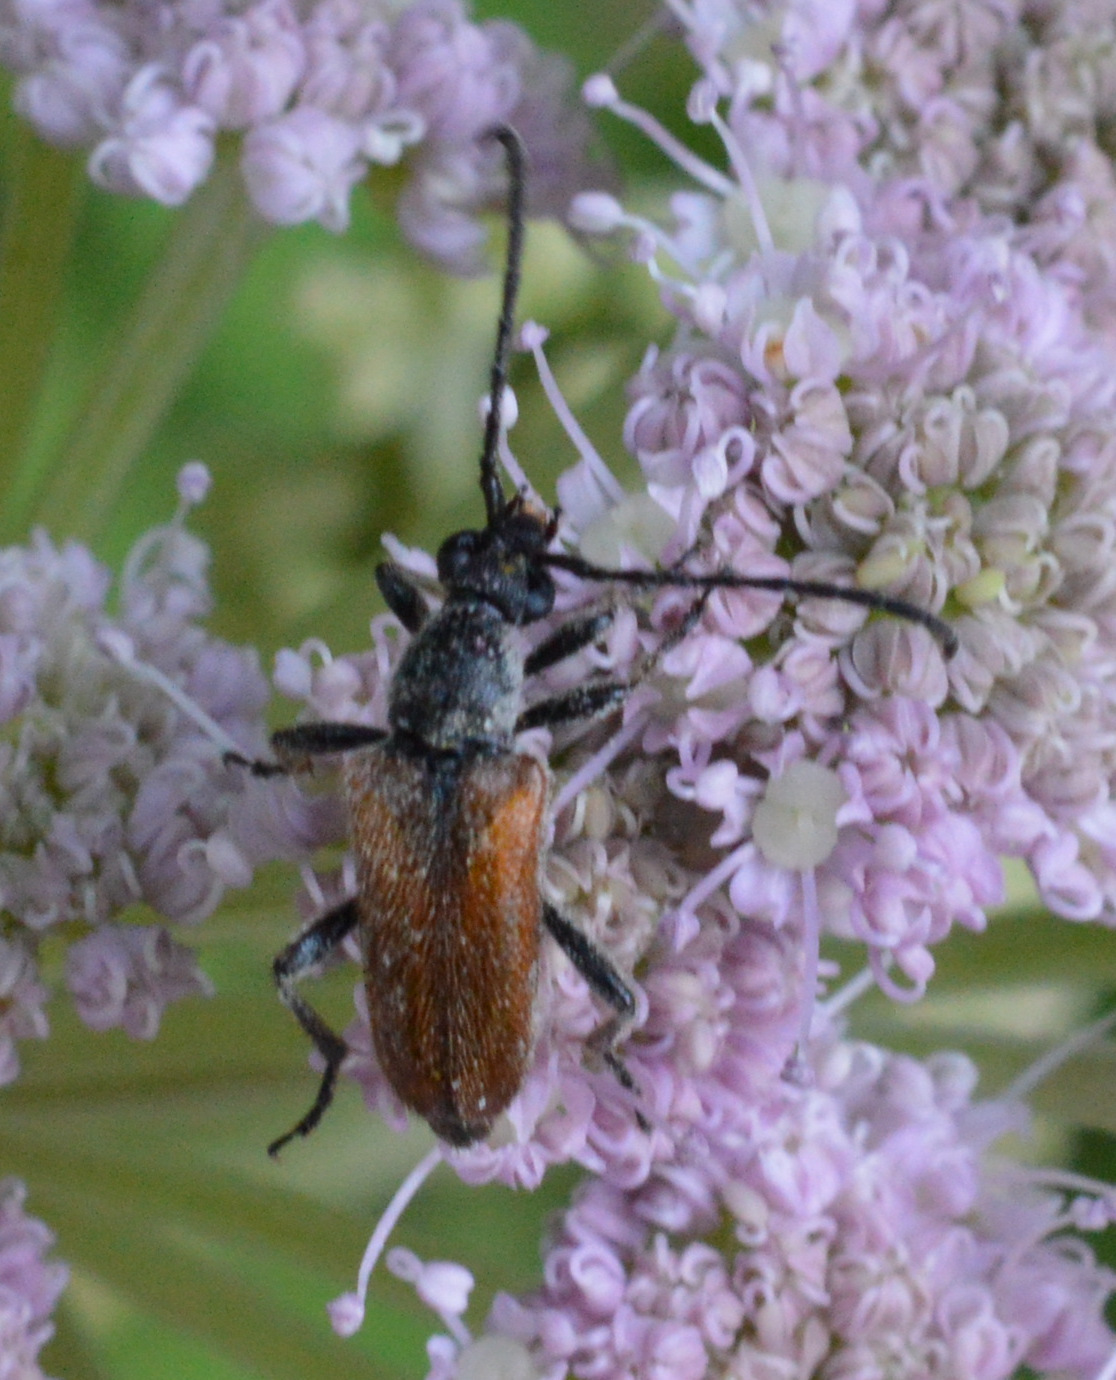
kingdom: Animalia
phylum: Arthropoda
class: Insecta
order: Coleoptera
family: Cerambycidae
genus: Pseudovadonia
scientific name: Pseudovadonia livida
